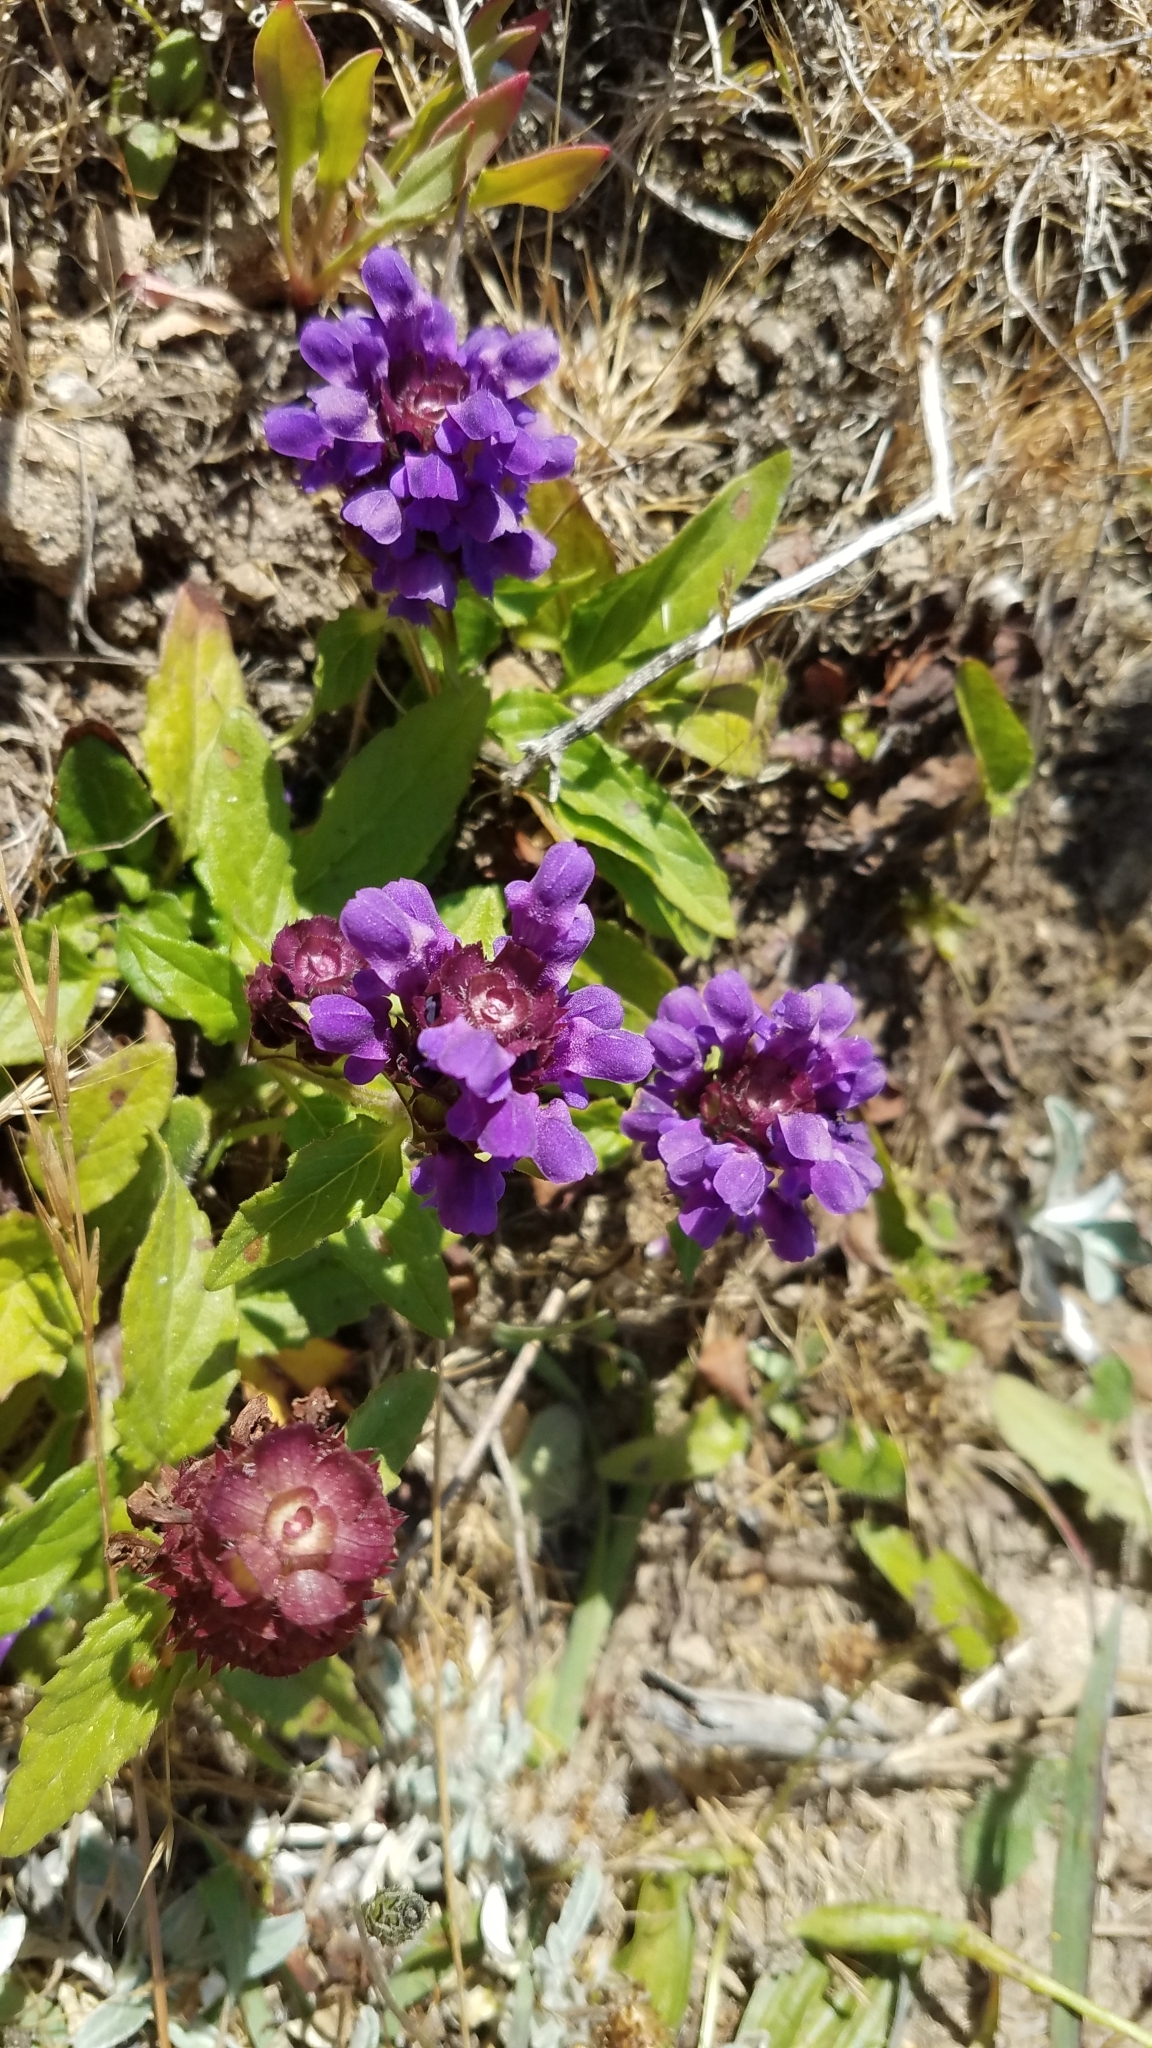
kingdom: Plantae
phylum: Tracheophyta
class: Magnoliopsida
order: Lamiales
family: Lamiaceae
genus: Prunella
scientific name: Prunella vulgaris
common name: Heal-all
